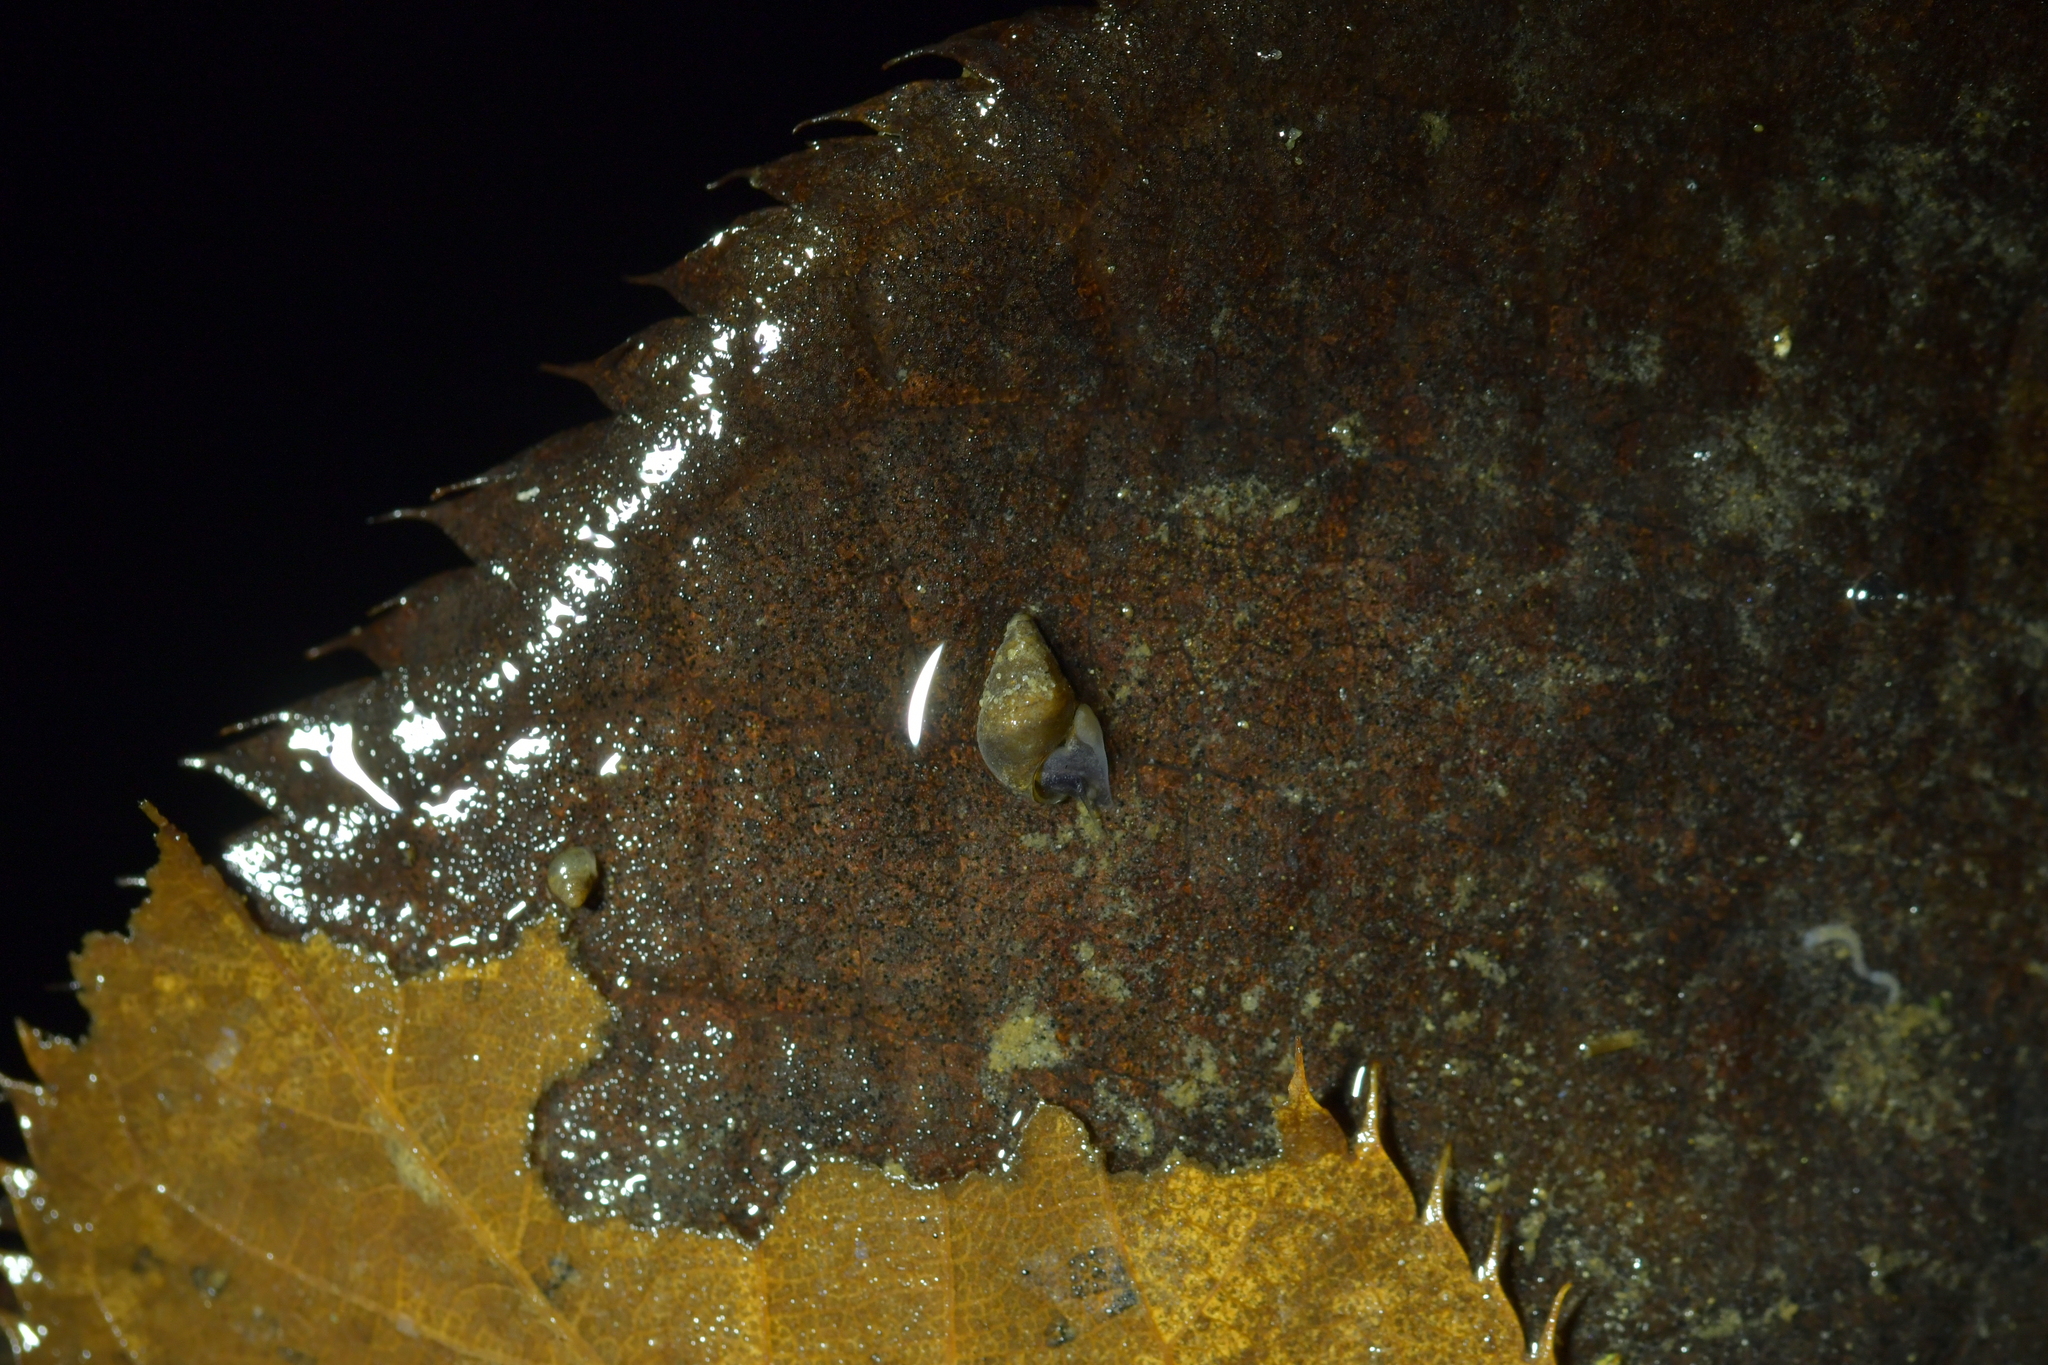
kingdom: Animalia
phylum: Mollusca
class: Gastropoda
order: Littorinimorpha
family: Tateidae
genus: Potamopyrgus
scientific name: Potamopyrgus antipodarum
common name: Jenkins' spire snail
